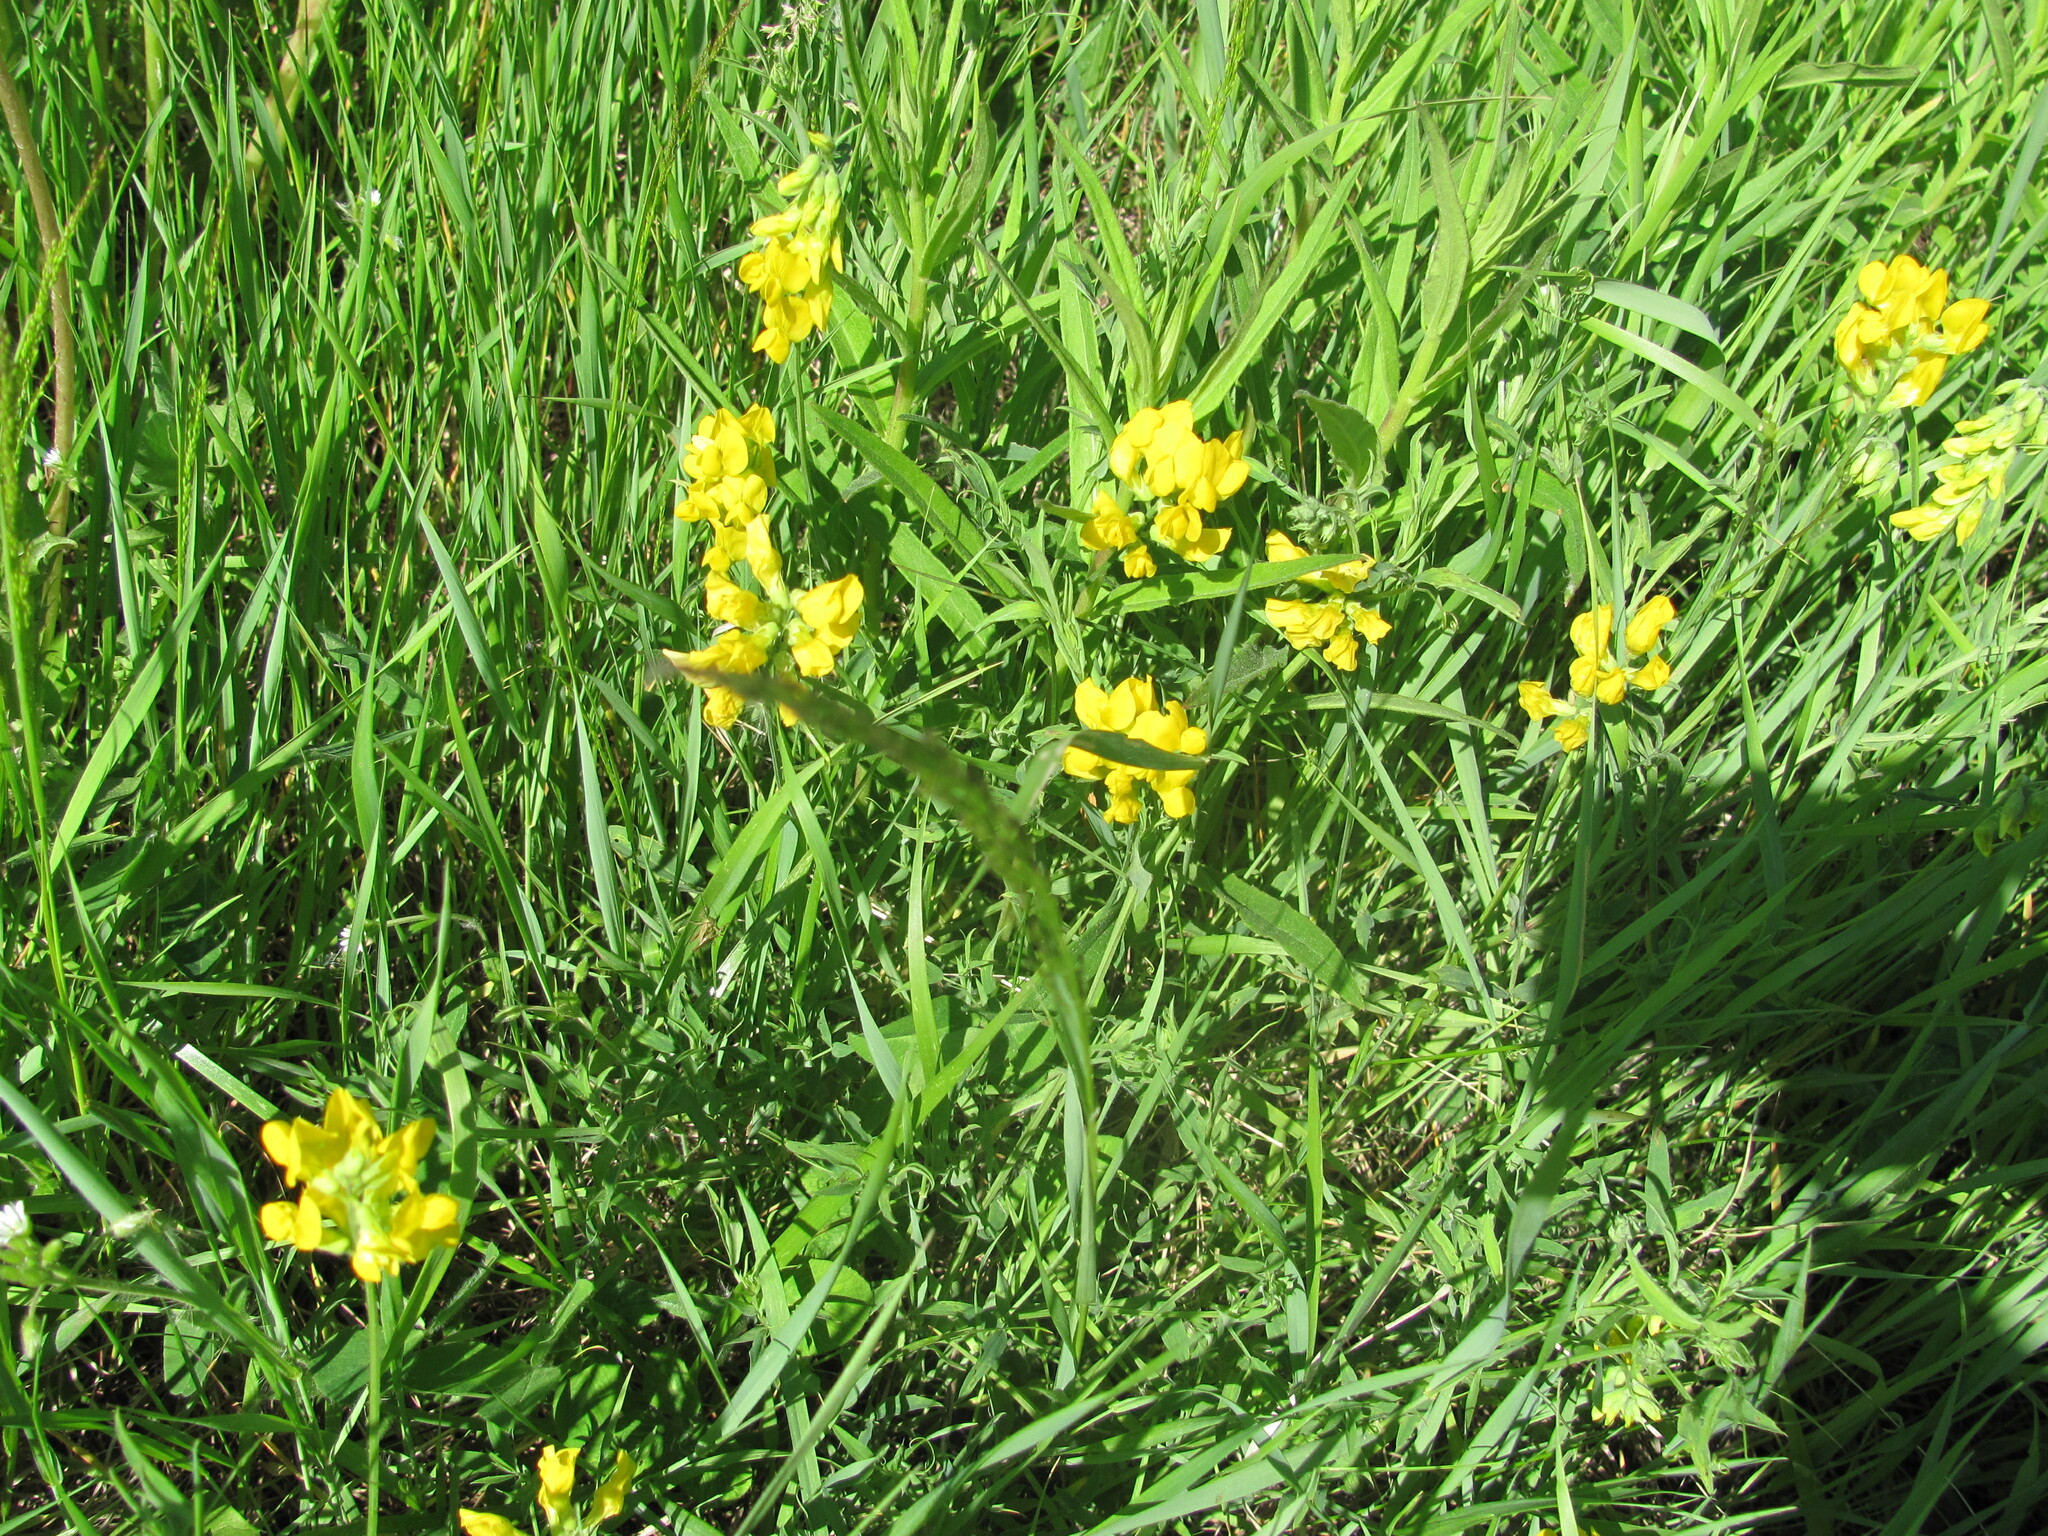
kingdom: Plantae
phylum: Tracheophyta
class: Magnoliopsida
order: Fabales
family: Fabaceae
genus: Lathyrus
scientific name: Lathyrus pratensis
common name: Meadow vetchling
